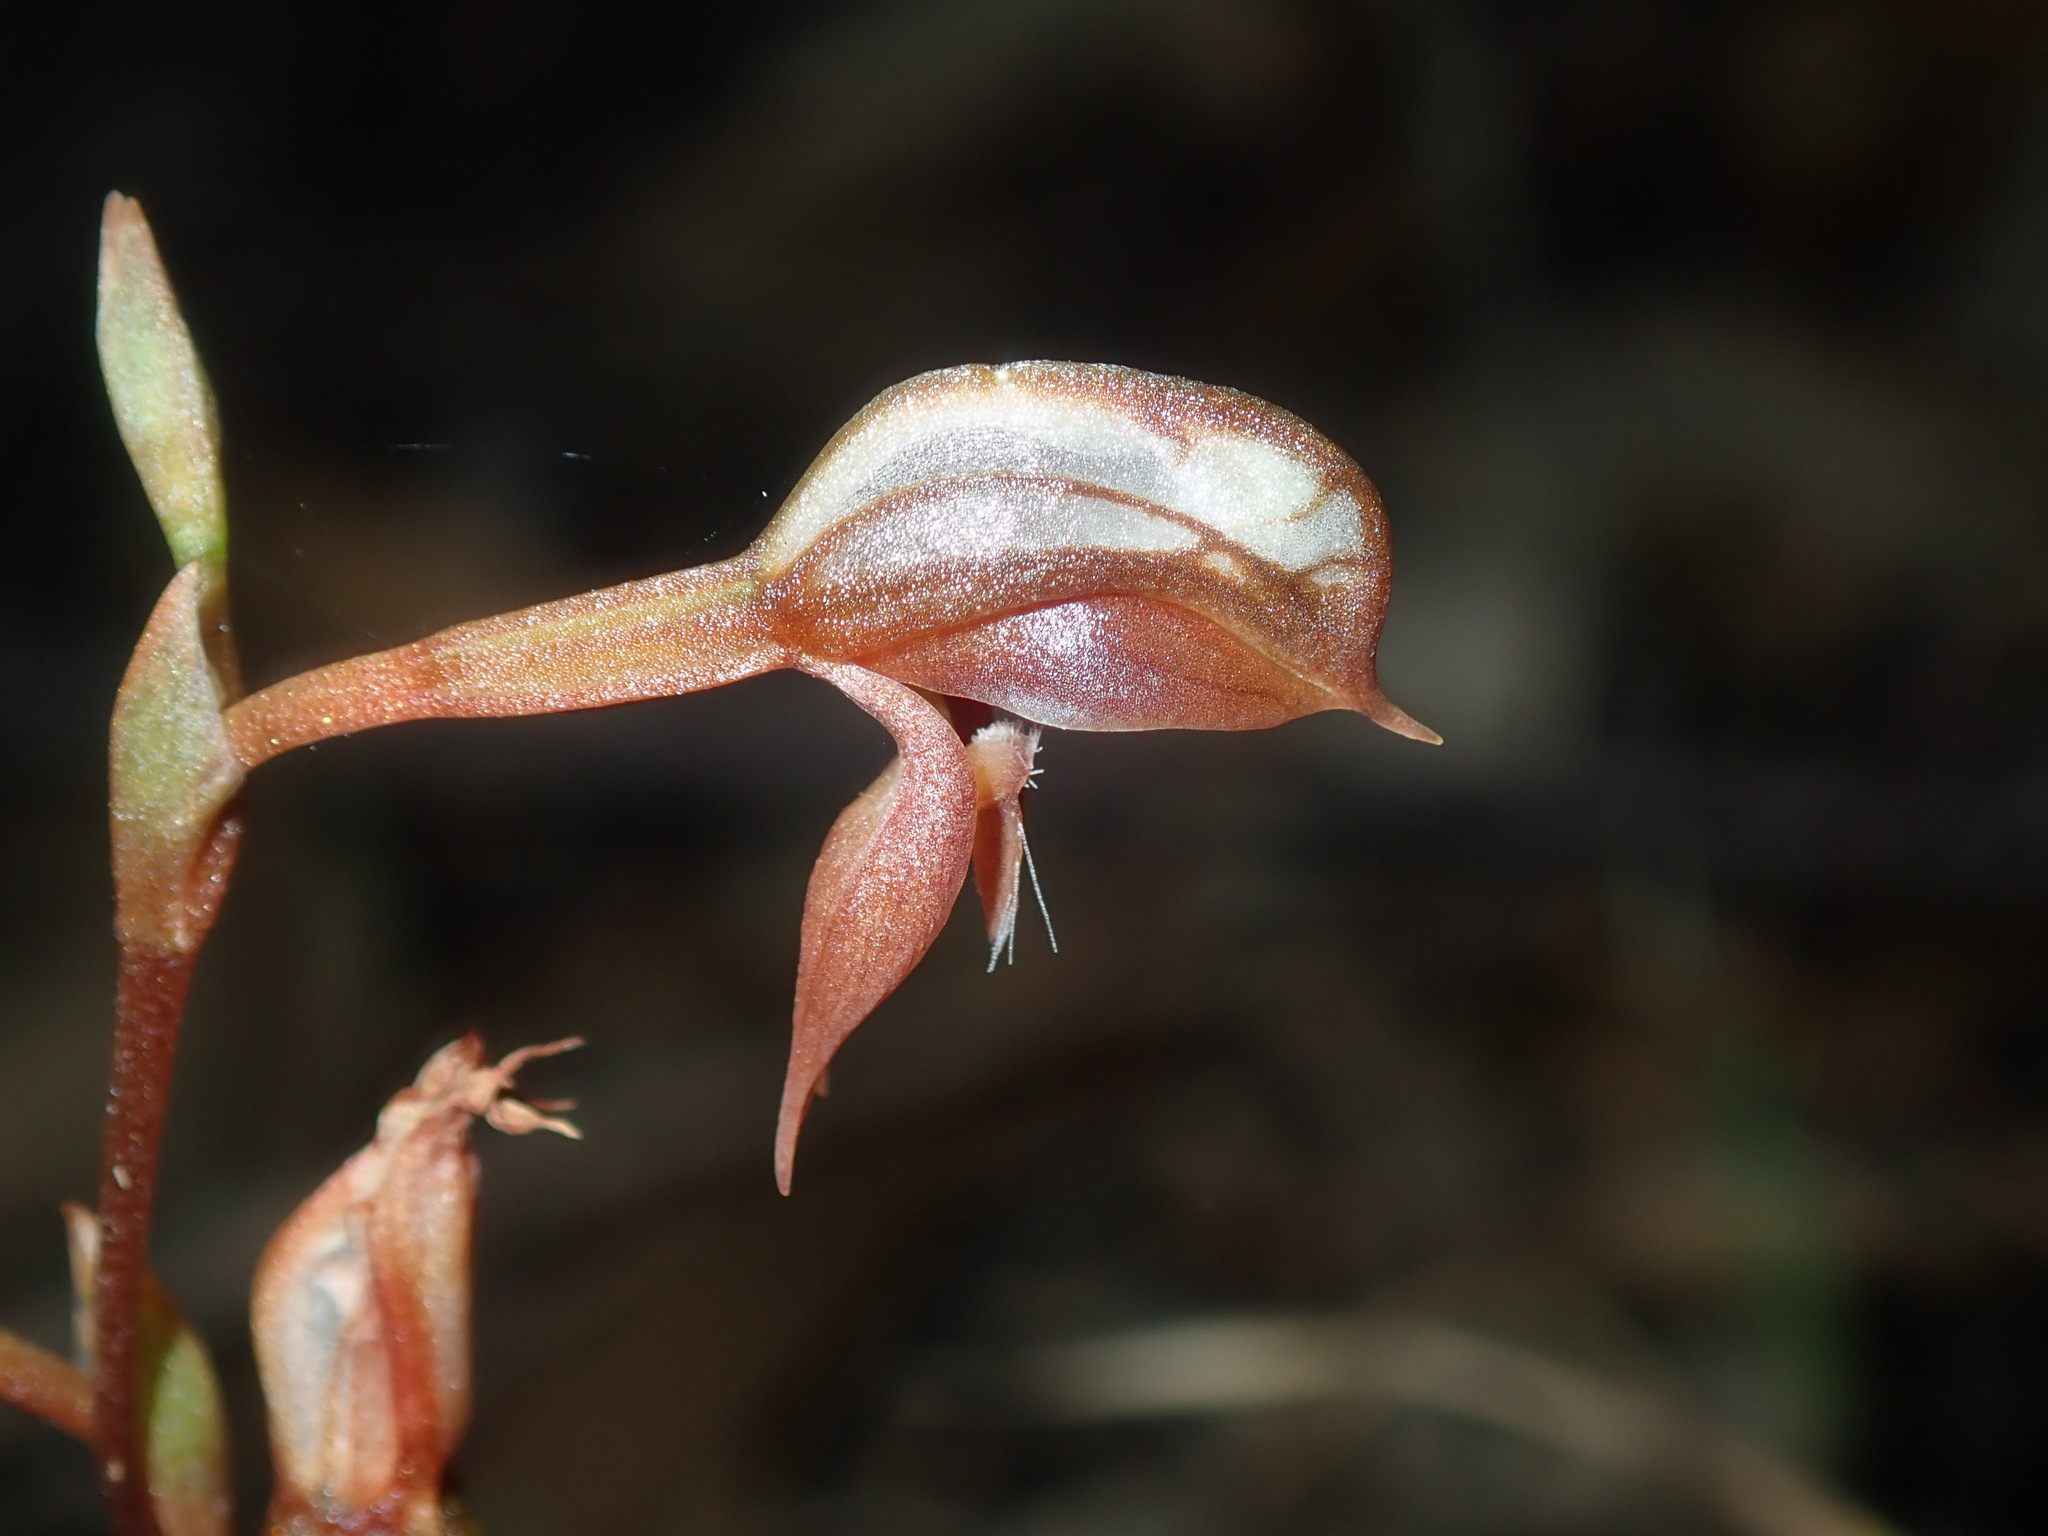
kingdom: Plantae
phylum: Tracheophyta
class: Liliopsida
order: Asparagales
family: Orchidaceae
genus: Pterostylis
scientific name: Pterostylis rufa
